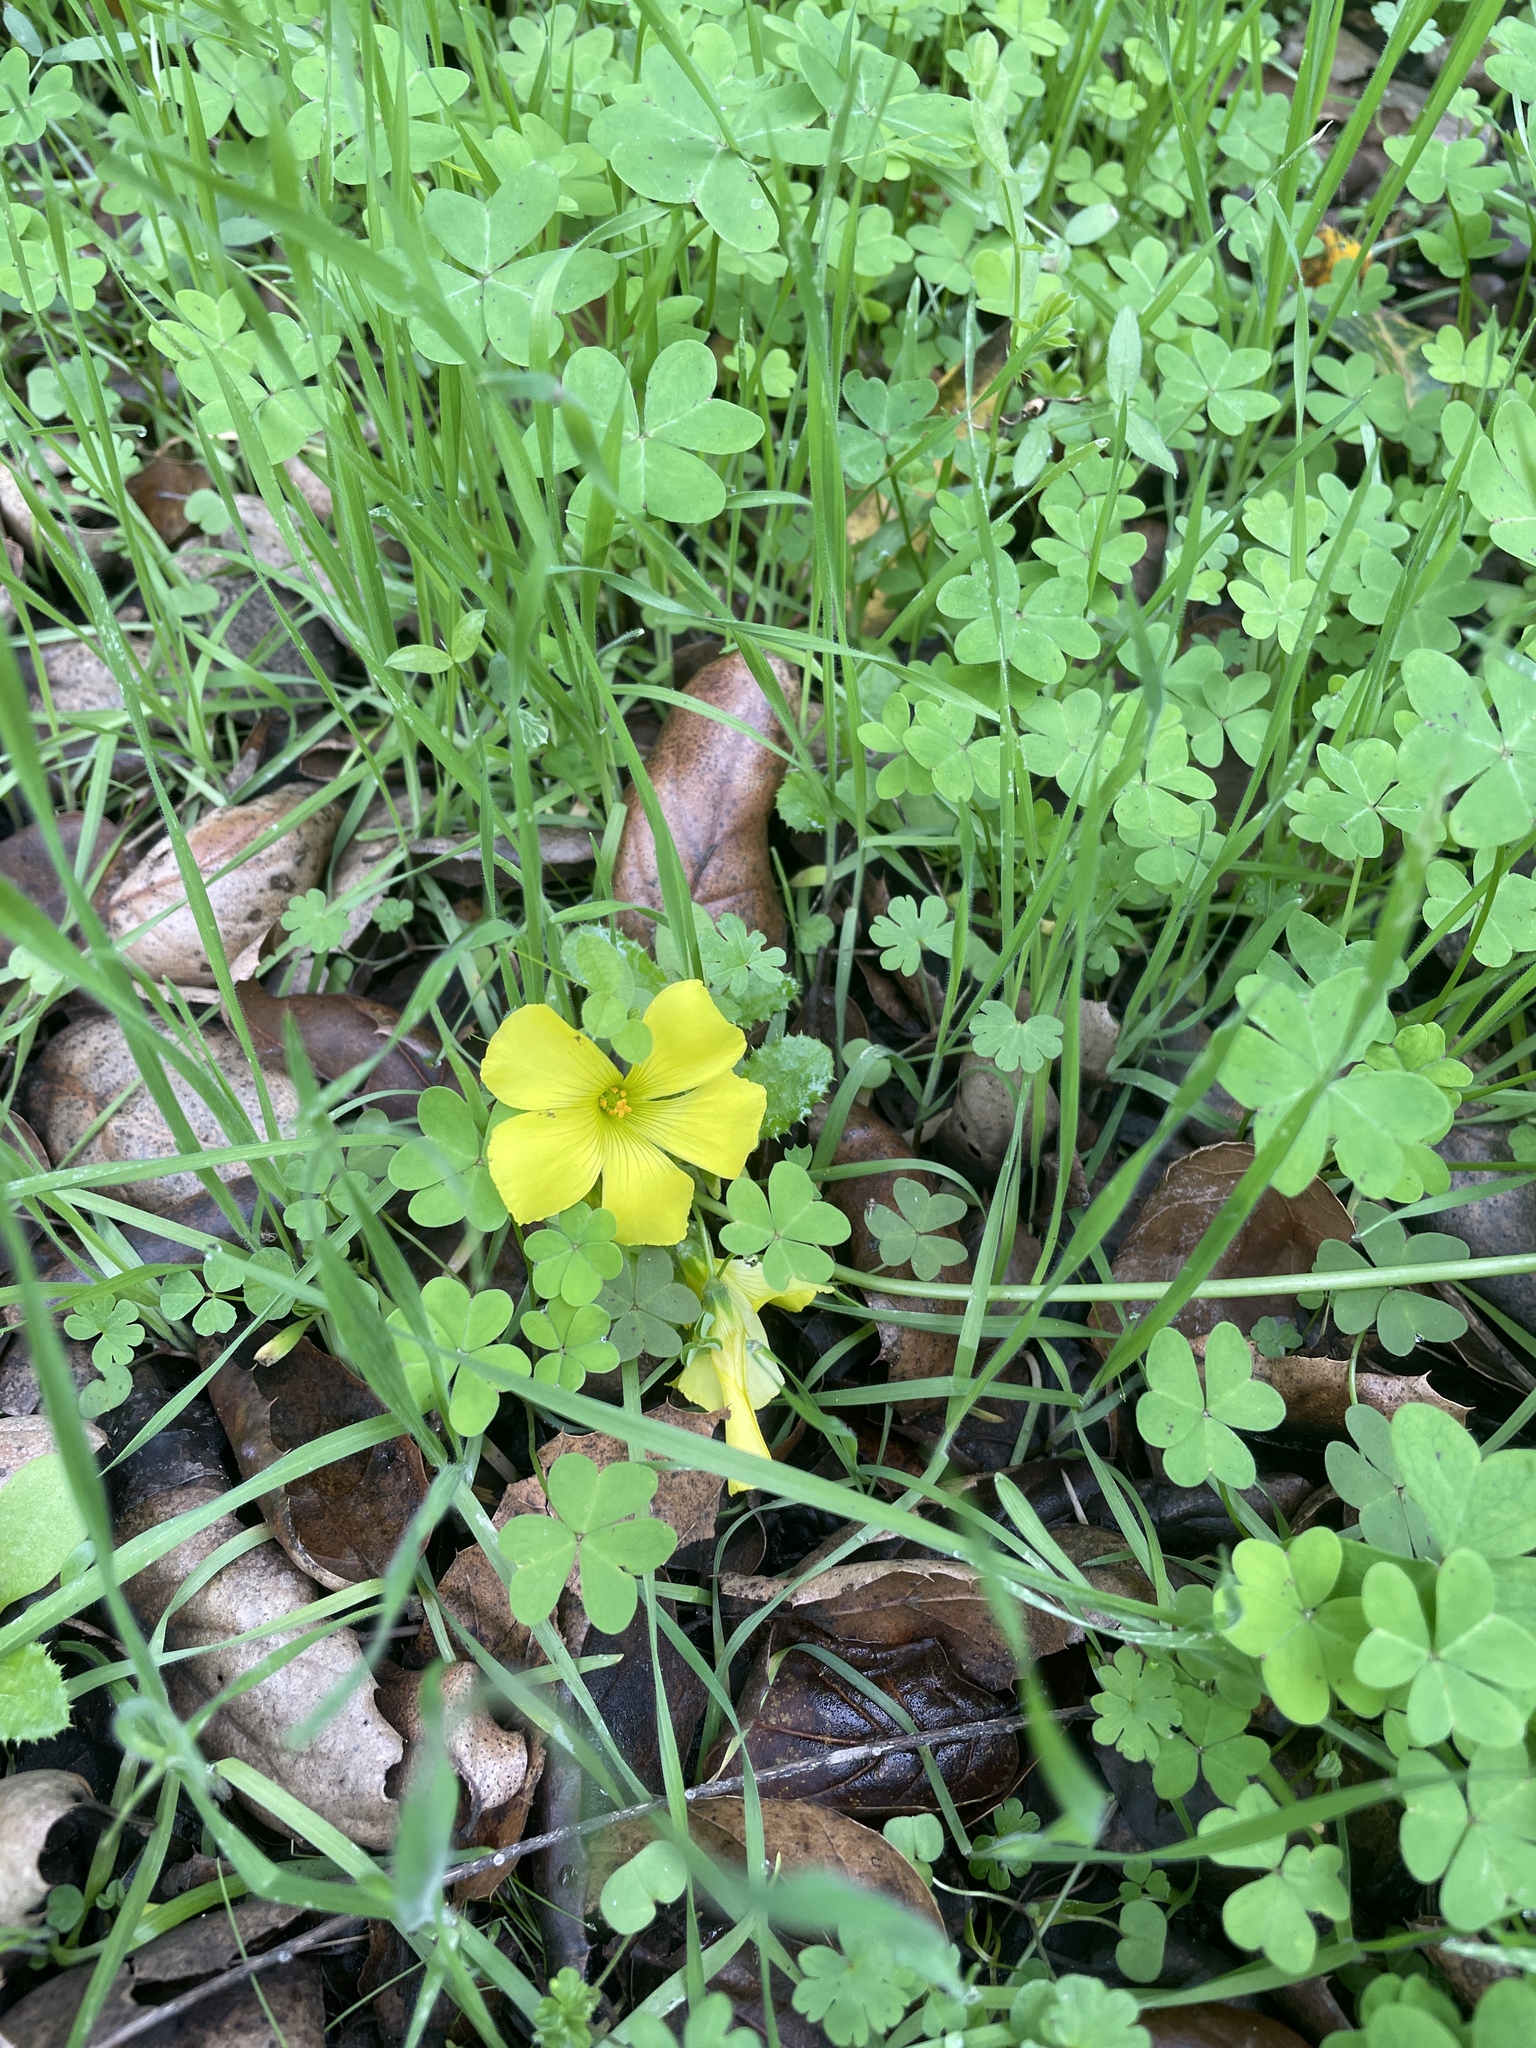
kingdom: Plantae
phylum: Tracheophyta
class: Magnoliopsida
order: Oxalidales
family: Oxalidaceae
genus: Oxalis
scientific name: Oxalis pes-caprae
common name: Bermuda-buttercup
